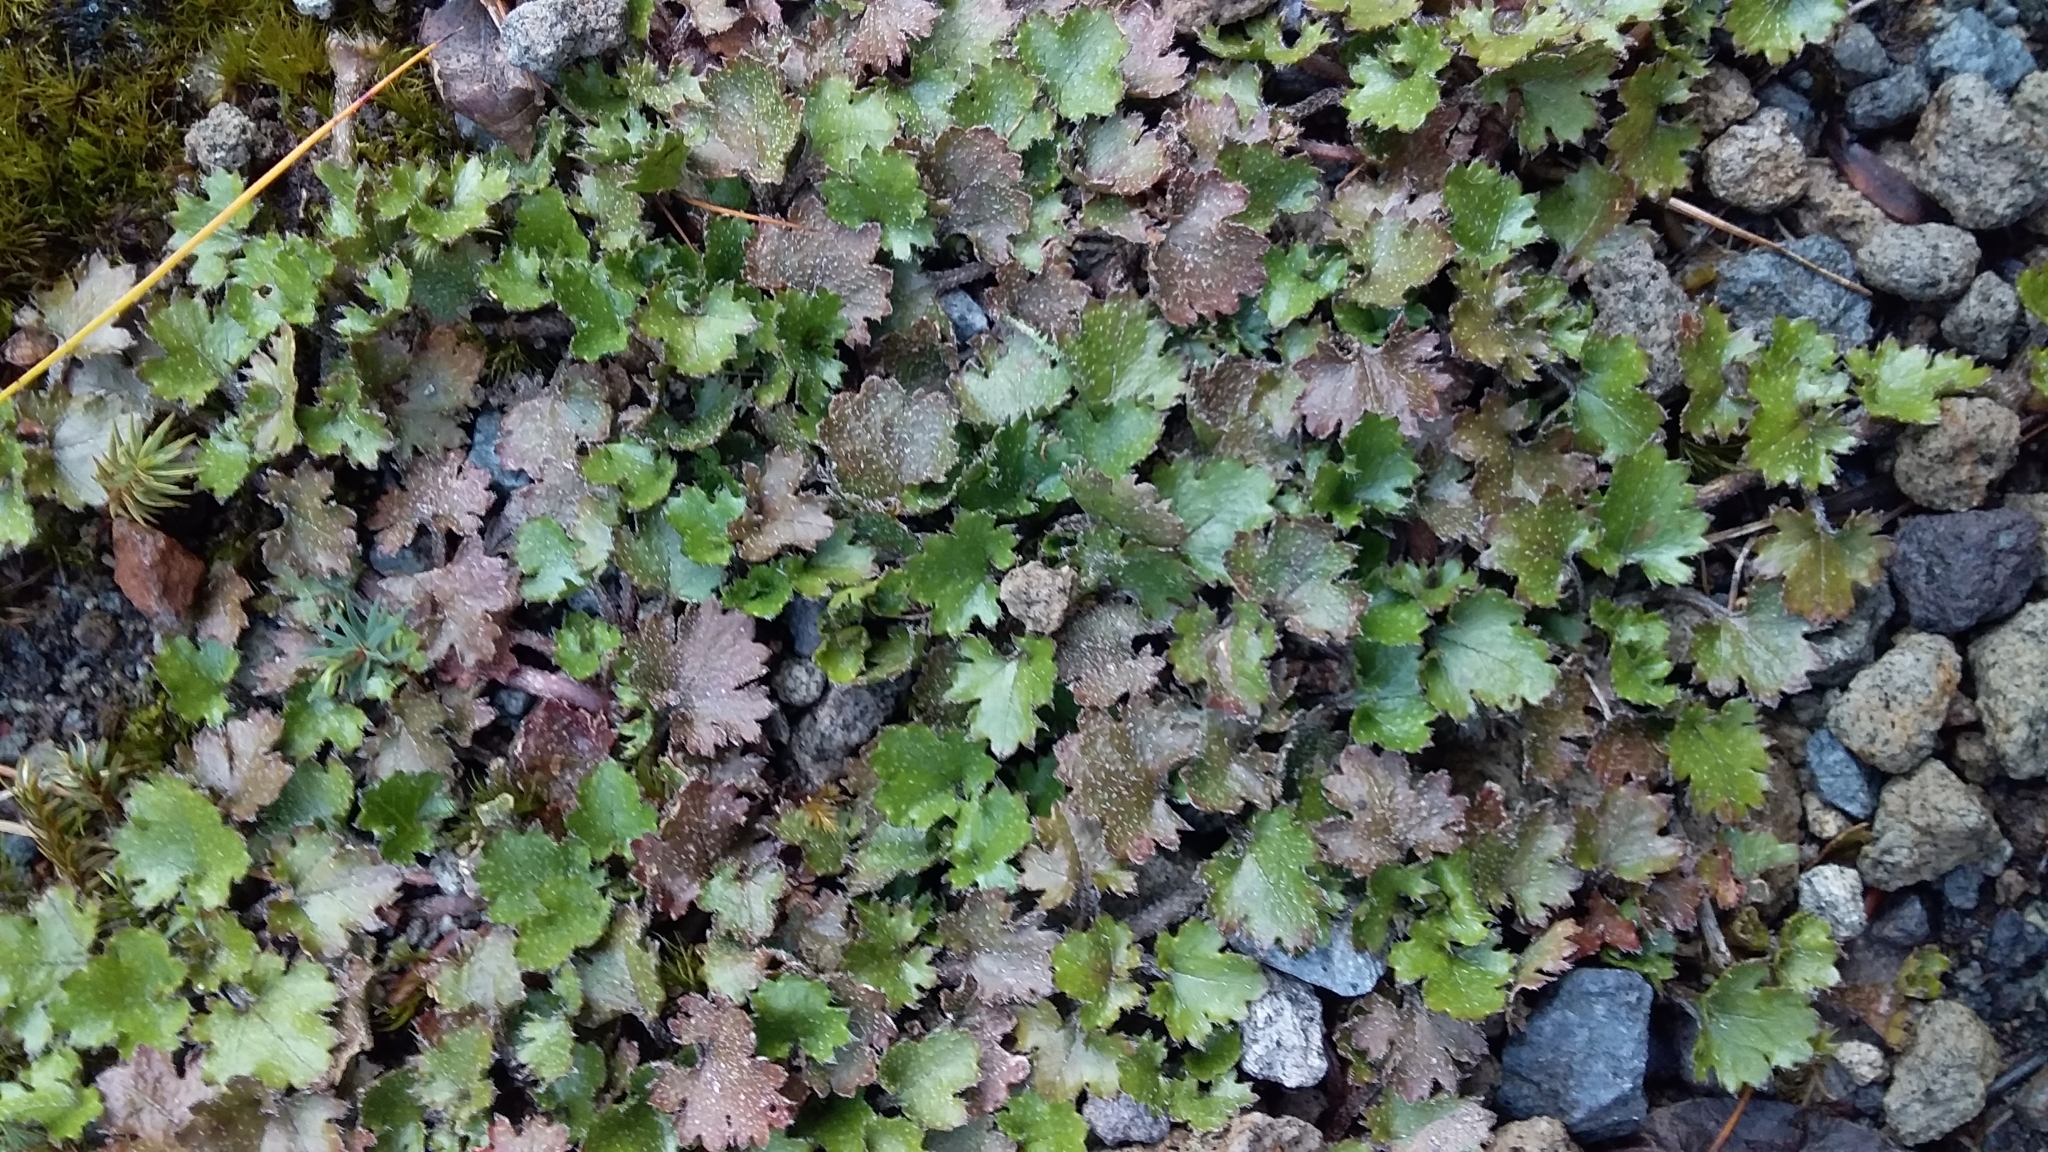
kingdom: Plantae
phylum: Tracheophyta
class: Magnoliopsida
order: Gunnerales
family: Gunneraceae
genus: Gunnera
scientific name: Gunnera monoica
